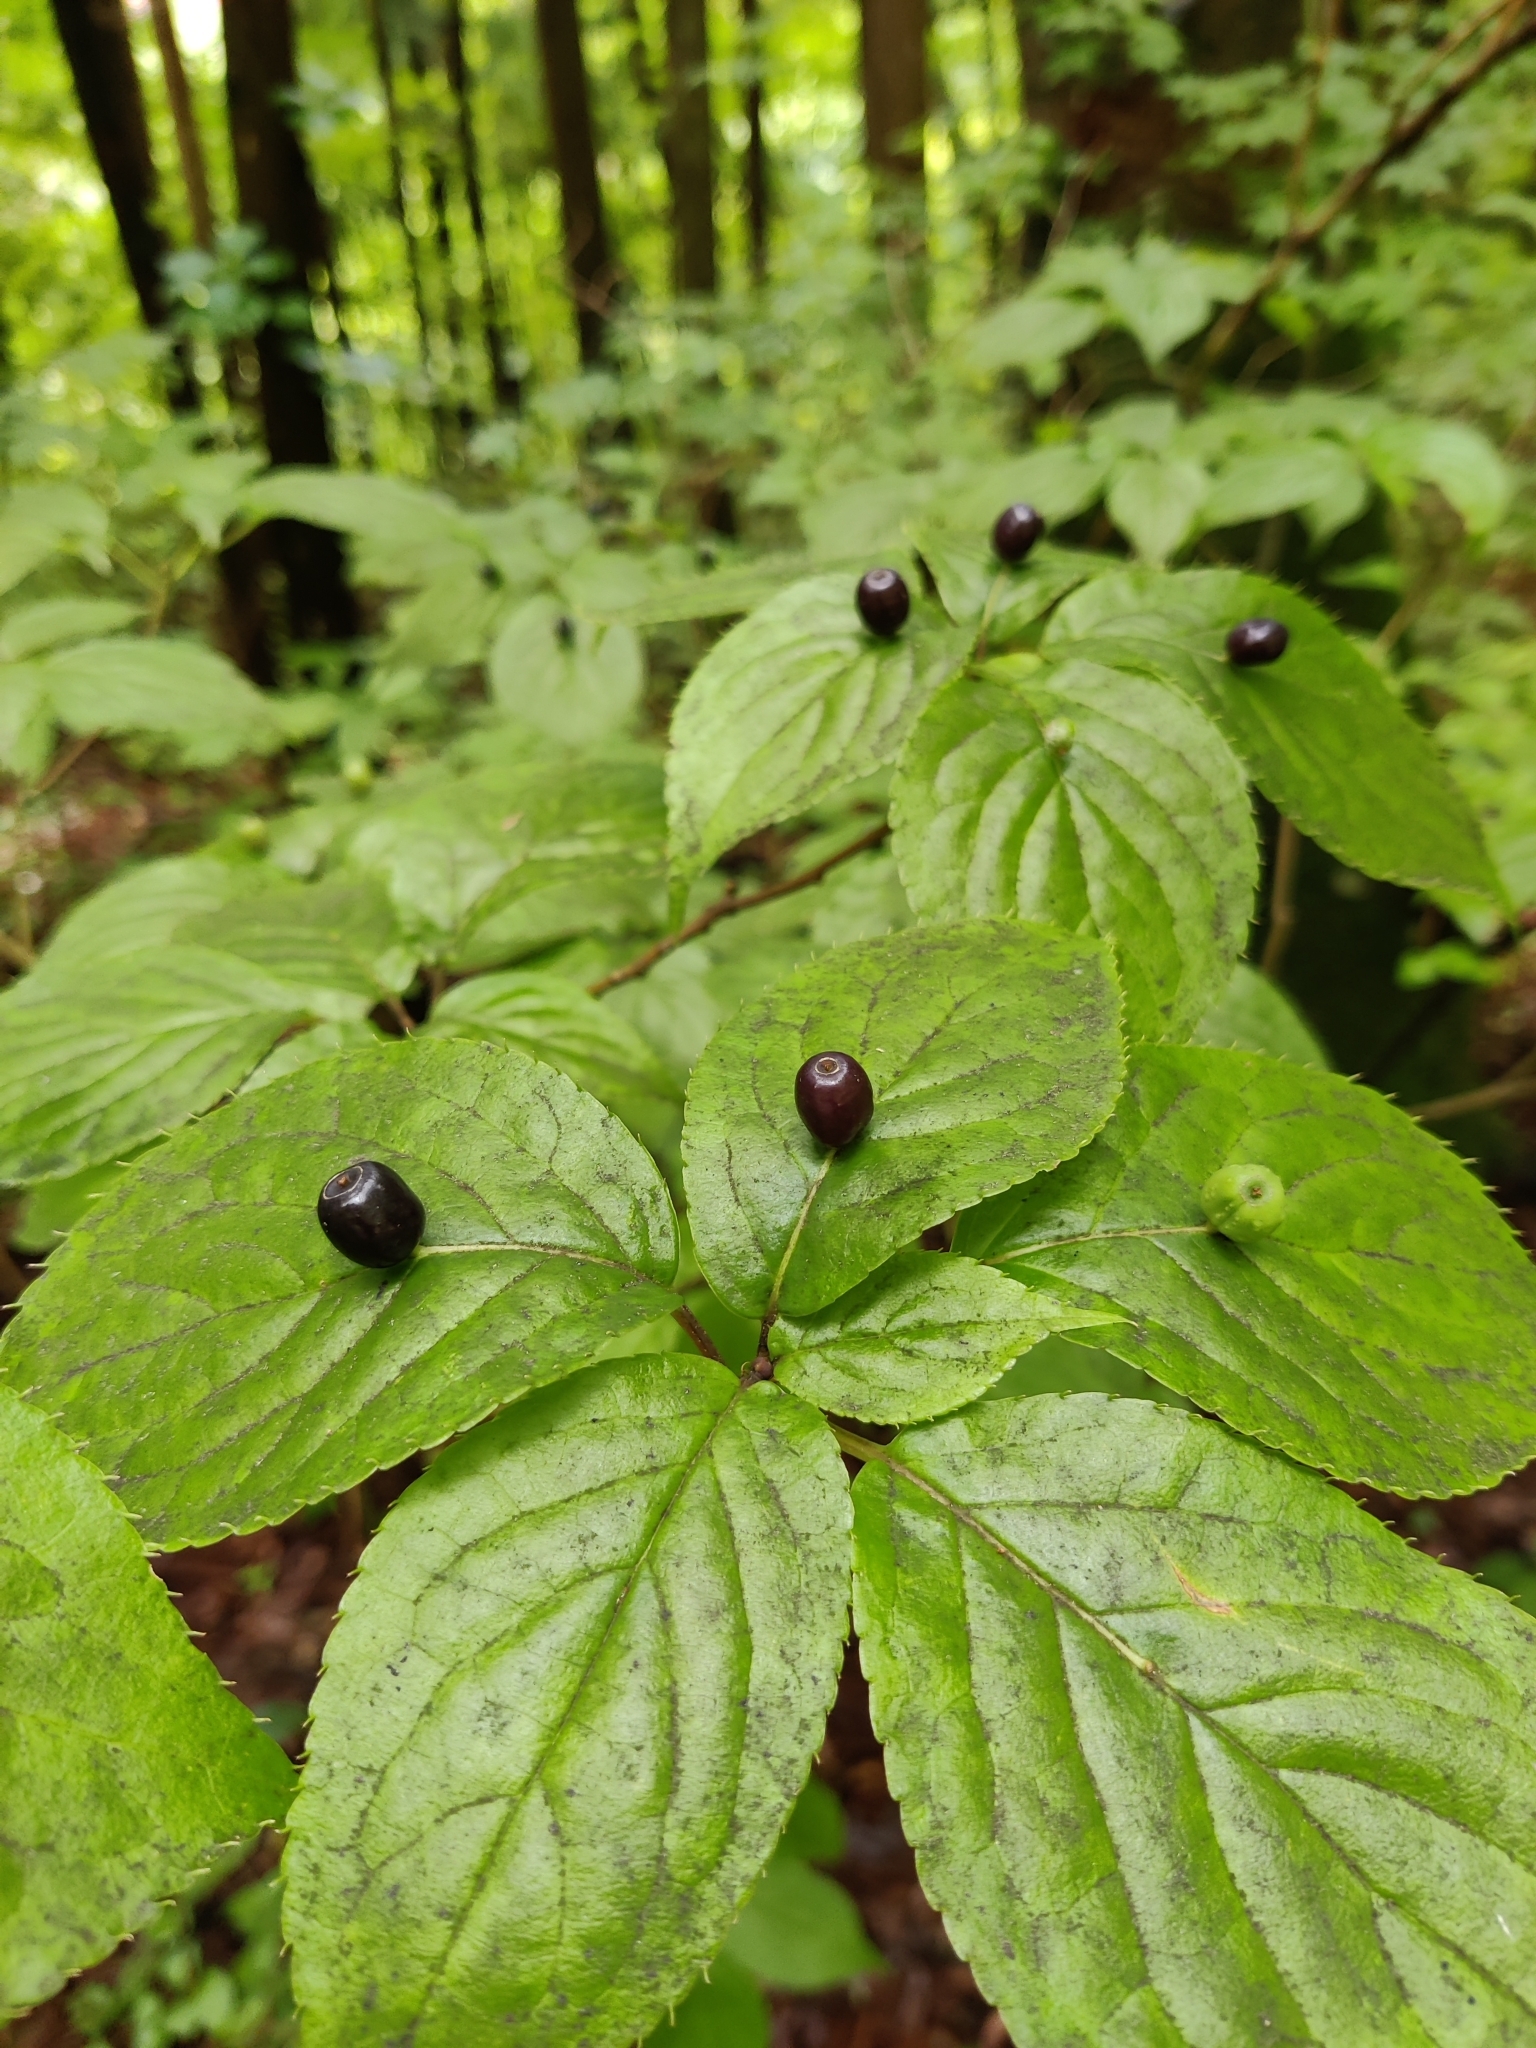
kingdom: Plantae
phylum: Tracheophyta
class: Magnoliopsida
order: Aquifoliales
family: Helwingiaceae
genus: Helwingia
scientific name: Helwingia japonica
